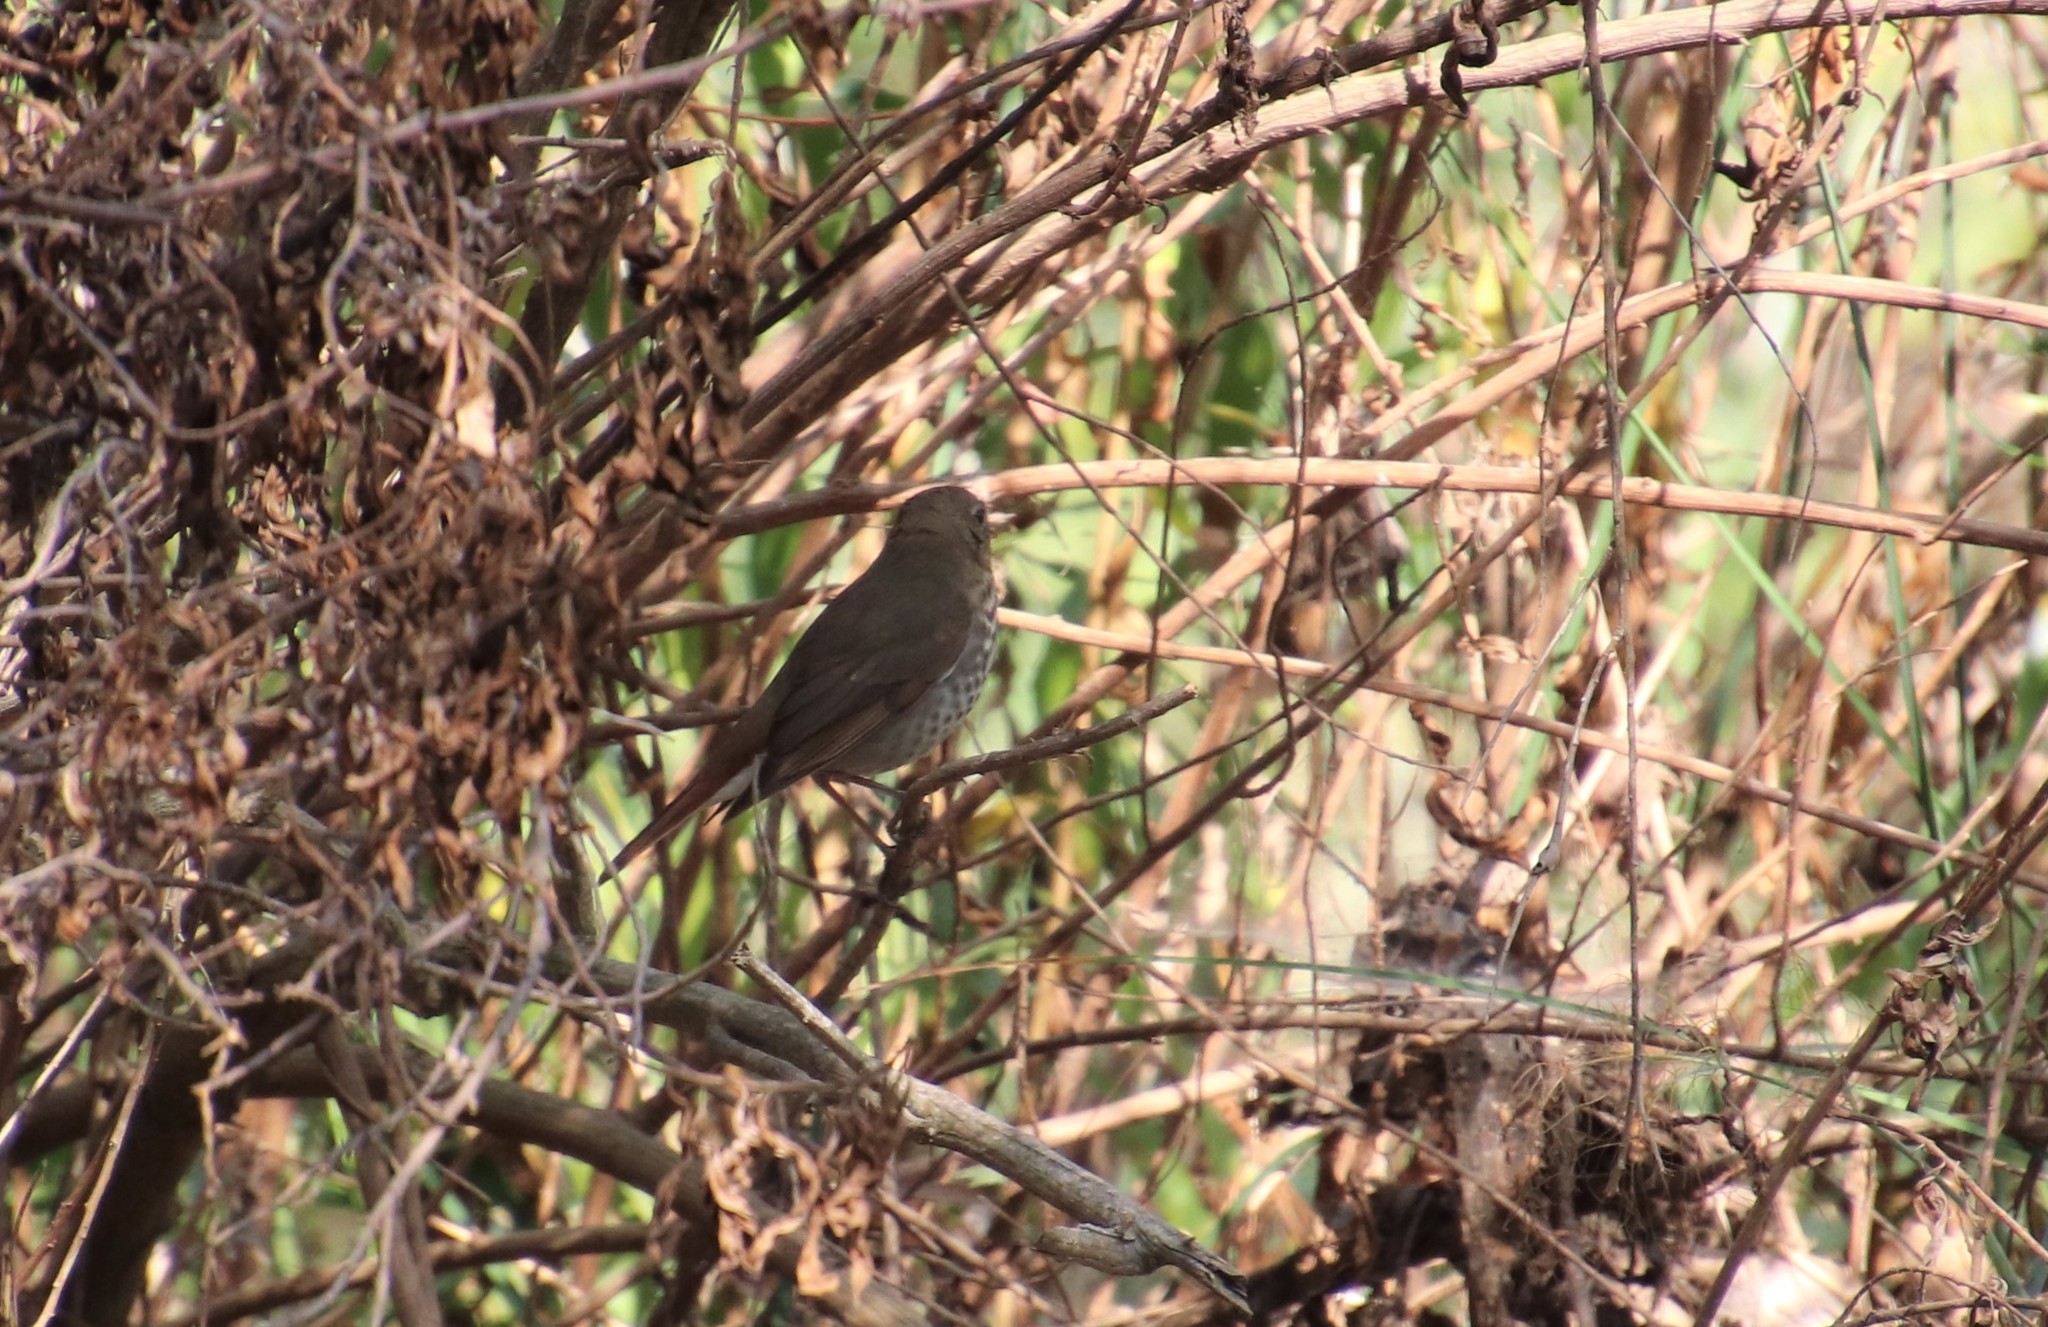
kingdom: Animalia
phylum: Chordata
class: Aves
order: Passeriformes
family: Turdidae
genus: Catharus
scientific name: Catharus guttatus
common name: Hermit thrush
